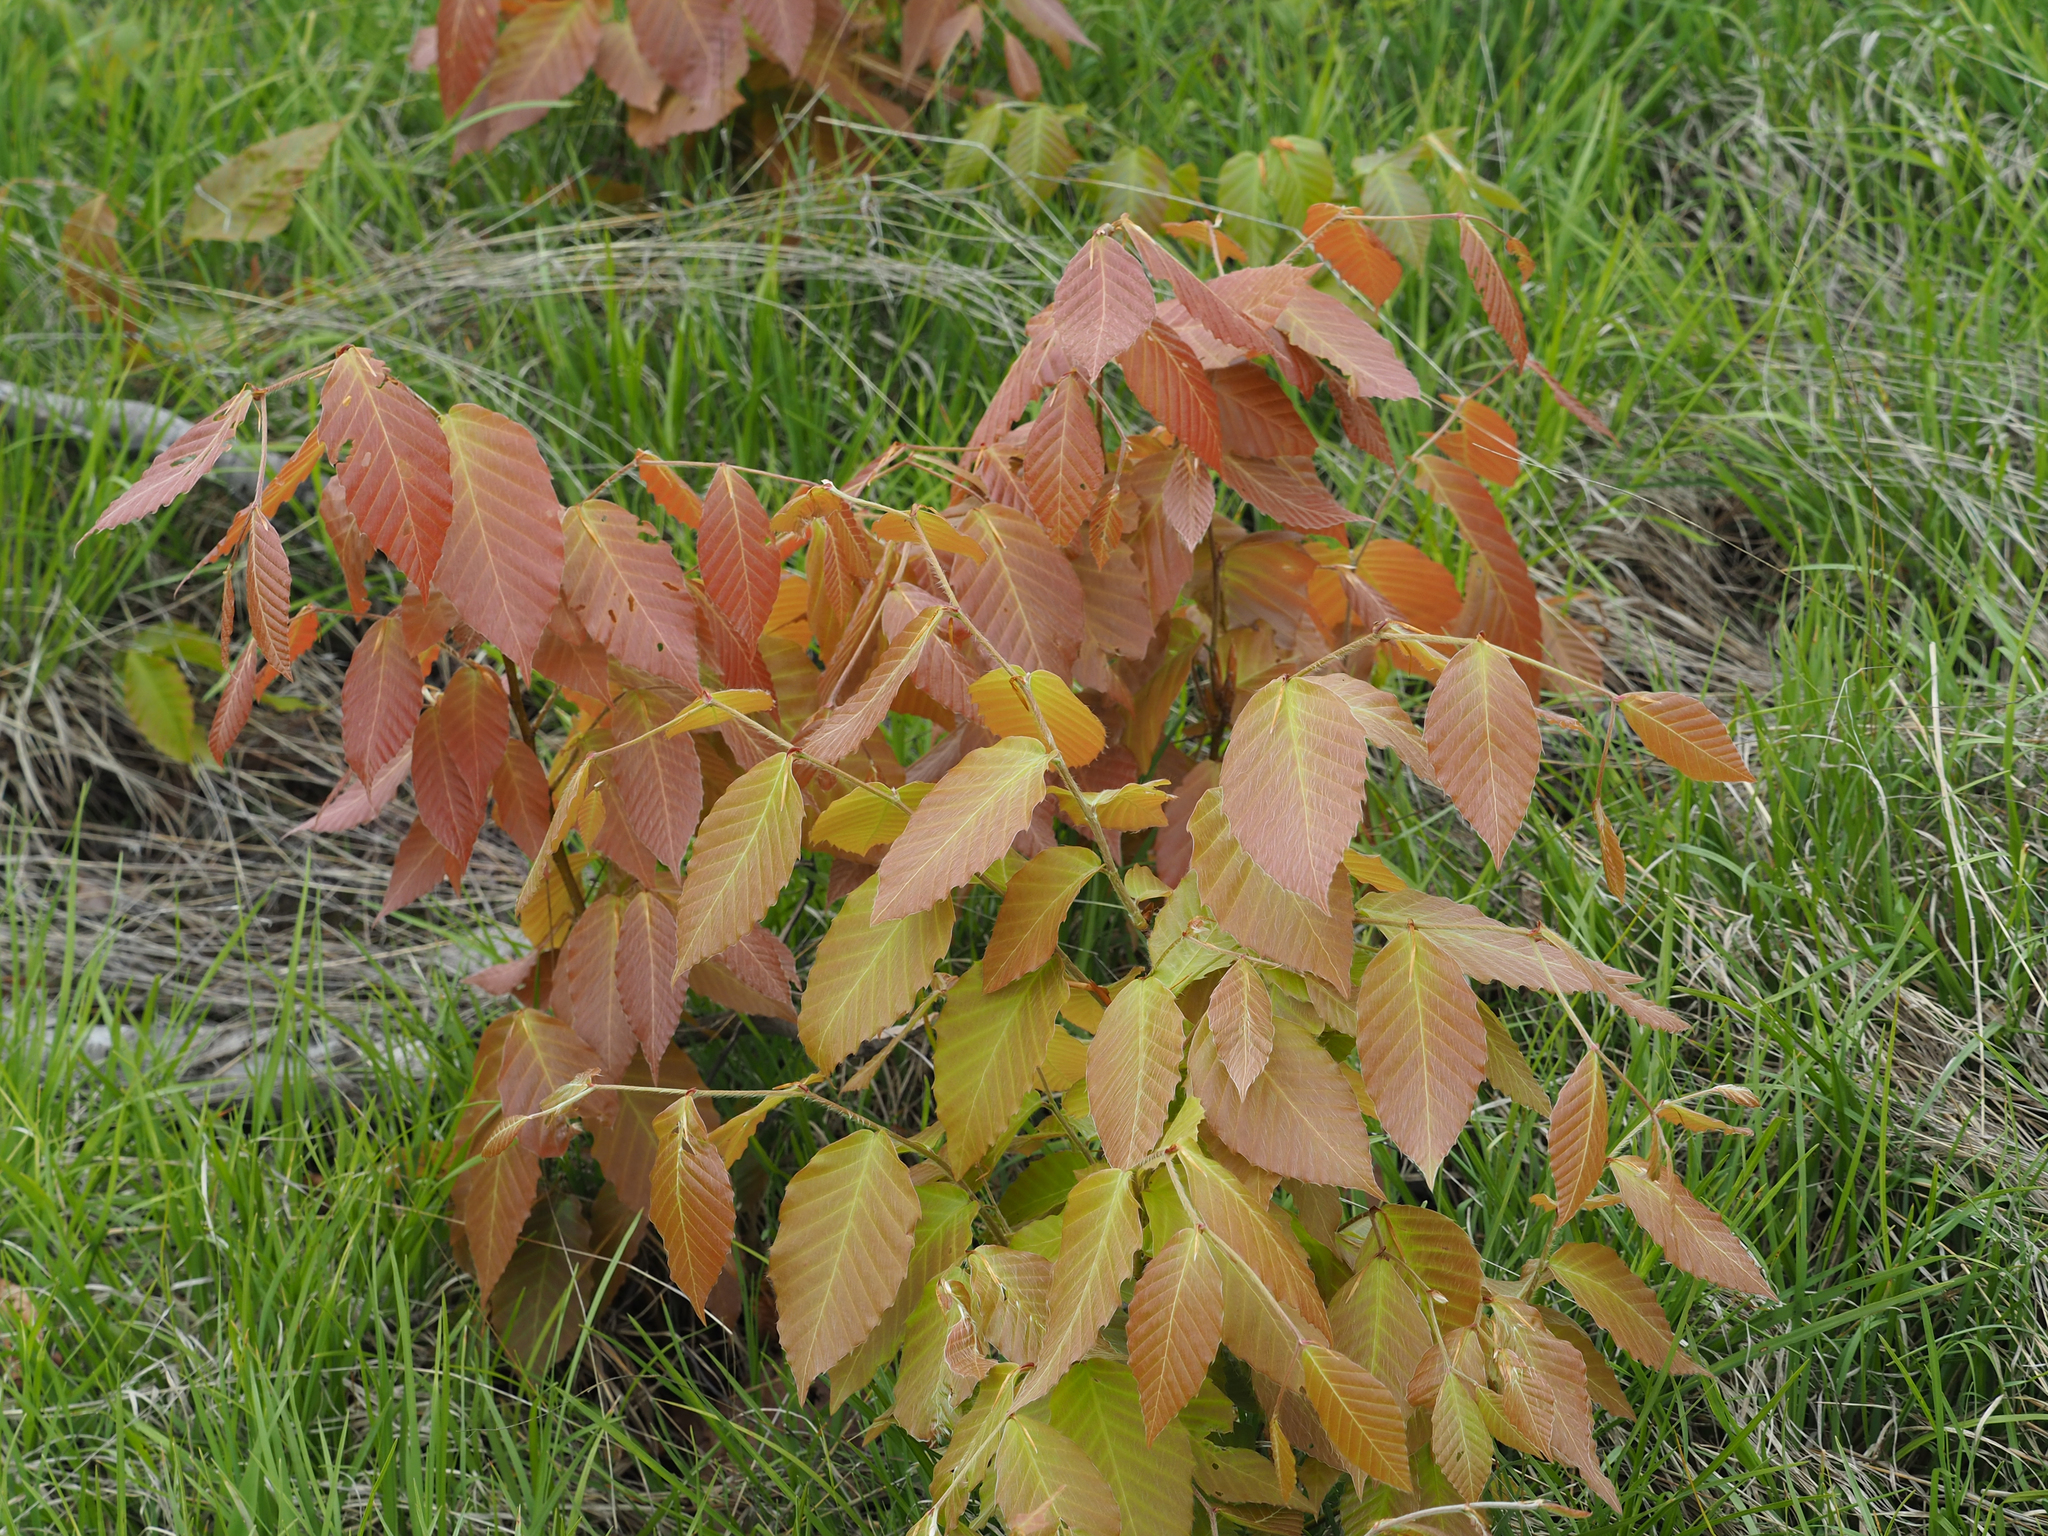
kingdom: Plantae
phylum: Tracheophyta
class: Magnoliopsida
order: Fagales
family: Fagaceae
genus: Fagus
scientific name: Fagus grandifolia
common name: American beech
